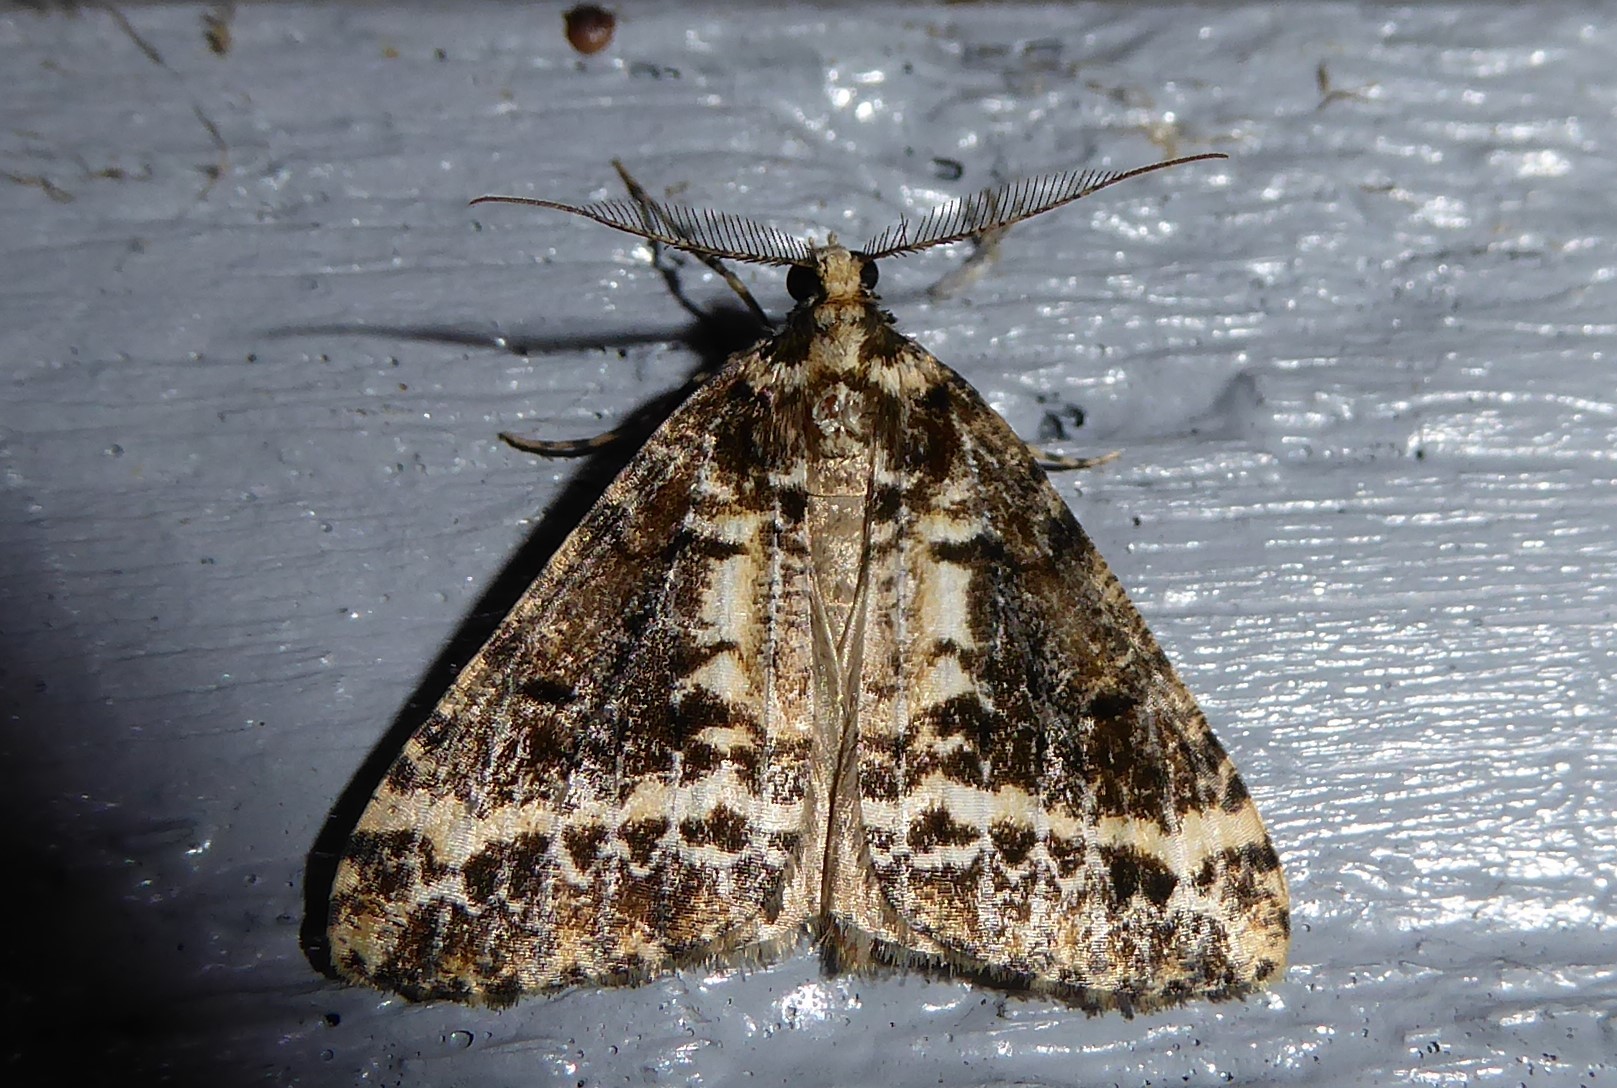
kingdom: Animalia
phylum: Arthropoda
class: Insecta
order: Lepidoptera
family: Geometridae
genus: Pseudocoremia
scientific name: Pseudocoremia leucelaea
